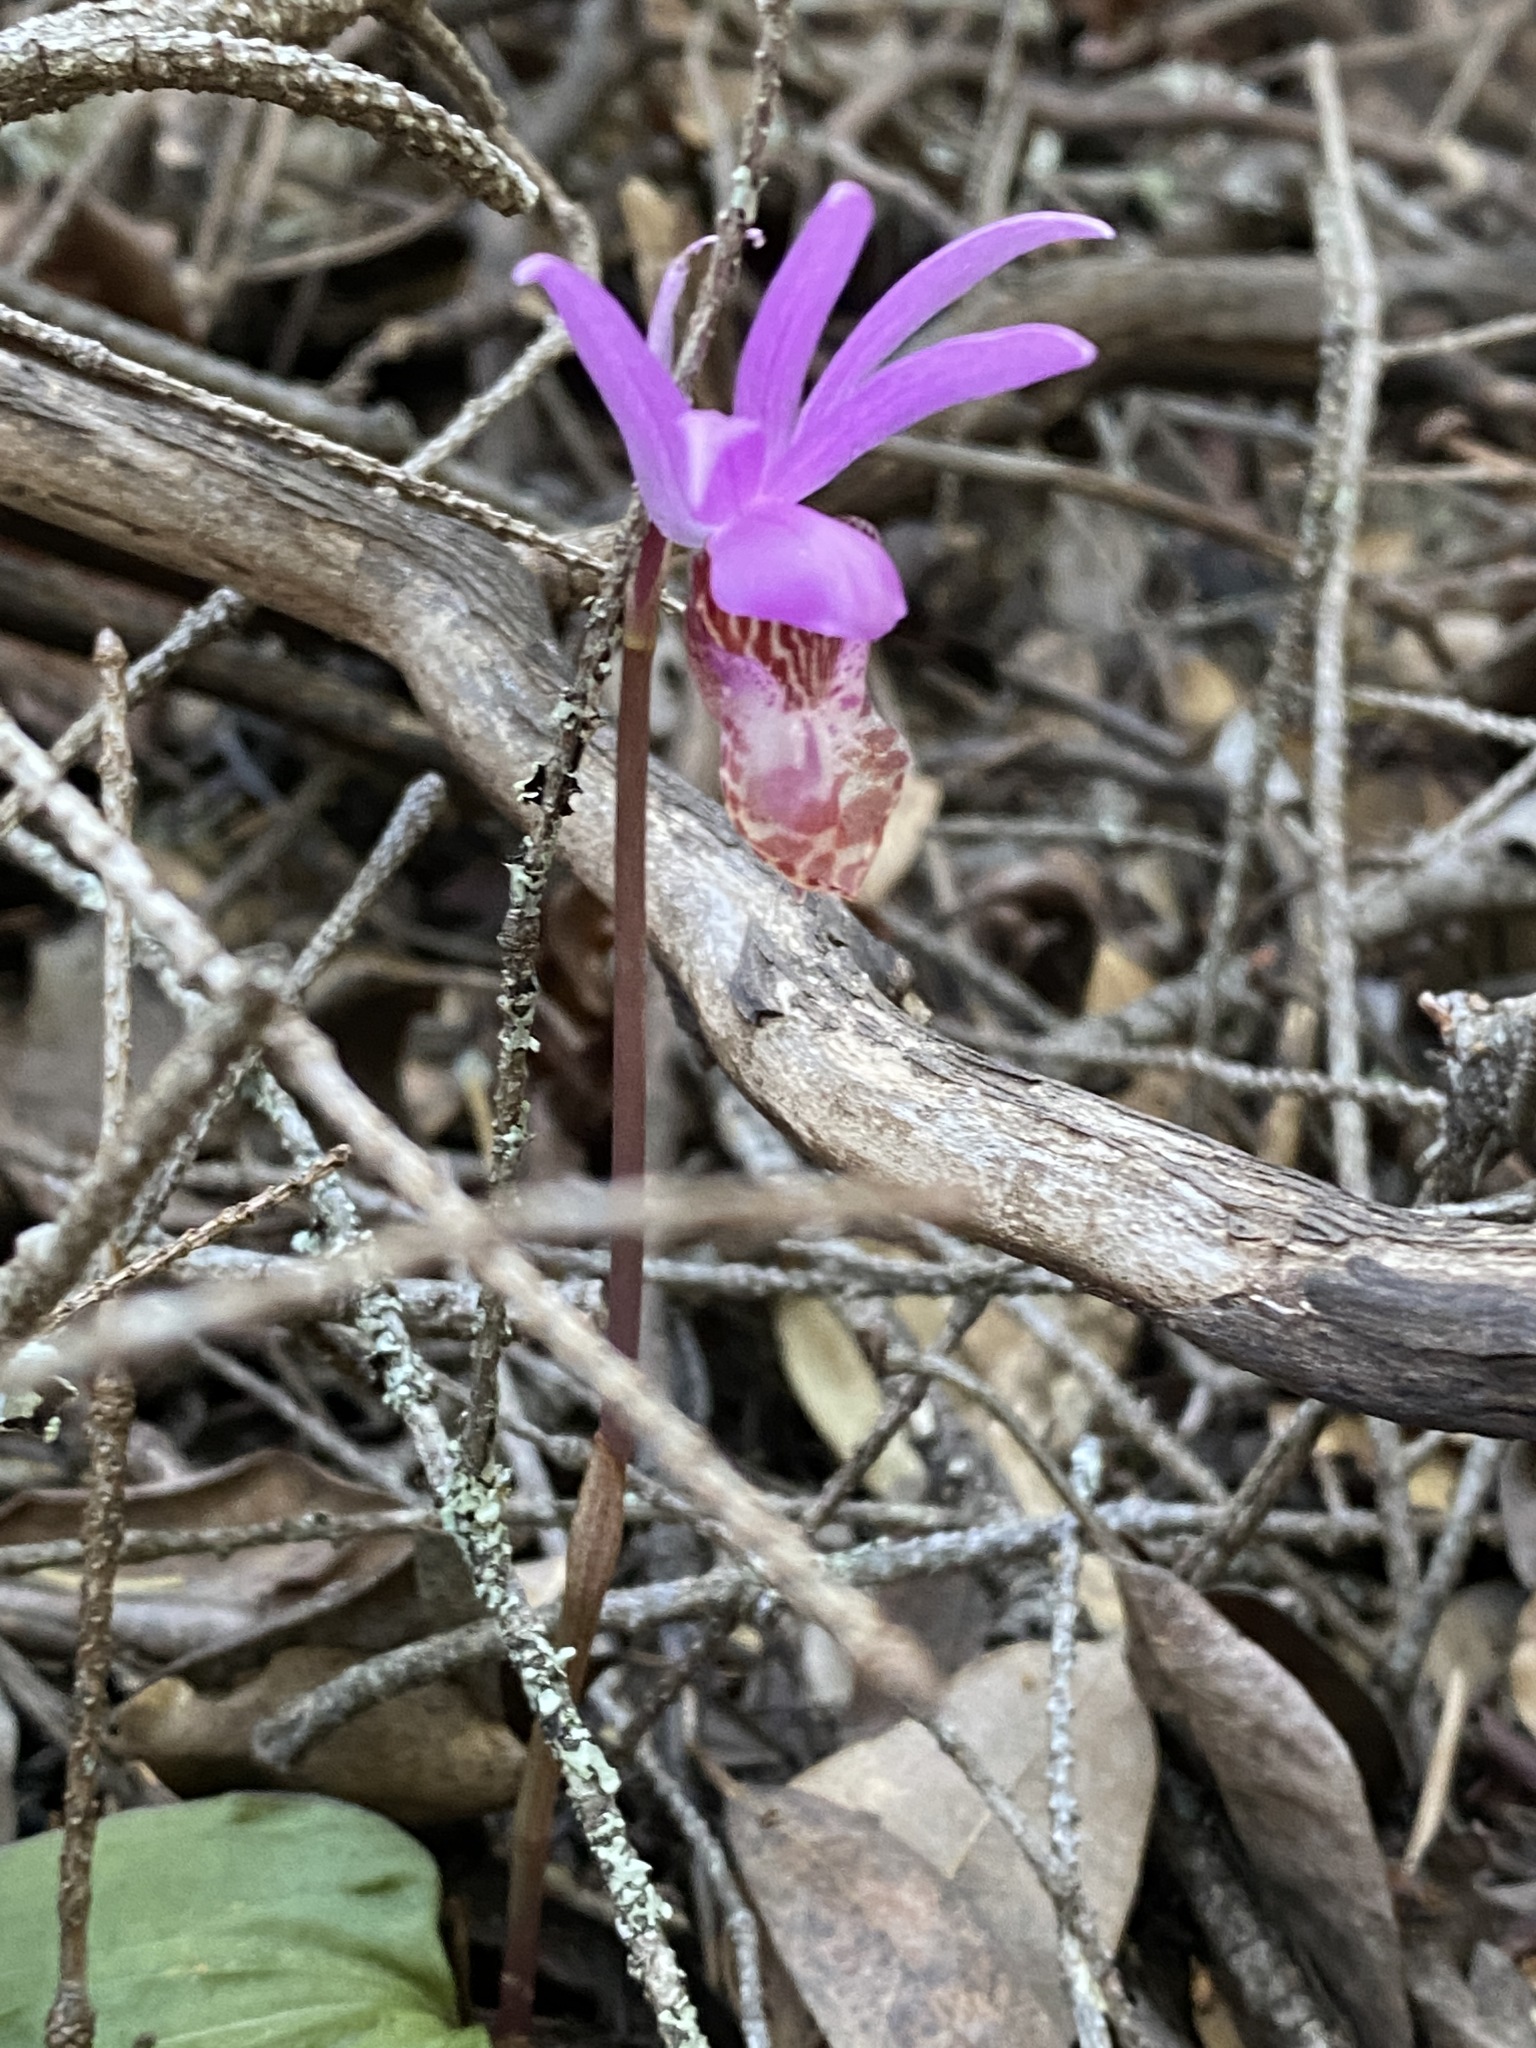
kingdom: Plantae
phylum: Tracheophyta
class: Liliopsida
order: Asparagales
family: Orchidaceae
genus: Calypso
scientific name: Calypso bulbosa
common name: Calypso
